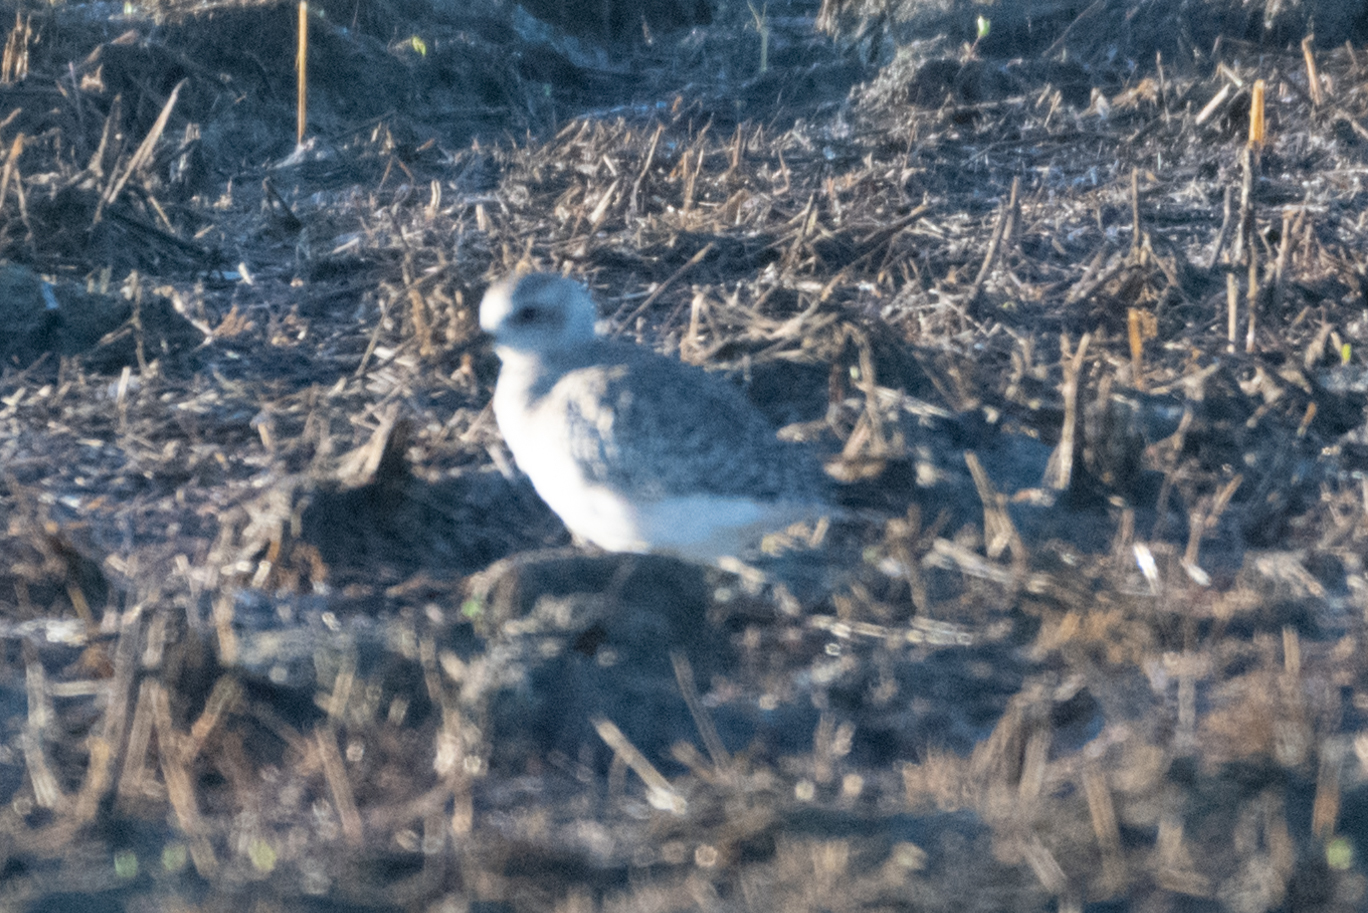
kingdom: Animalia
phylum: Chordata
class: Aves
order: Charadriiformes
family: Charadriidae
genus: Pluvialis
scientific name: Pluvialis squatarola
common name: Grey plover
